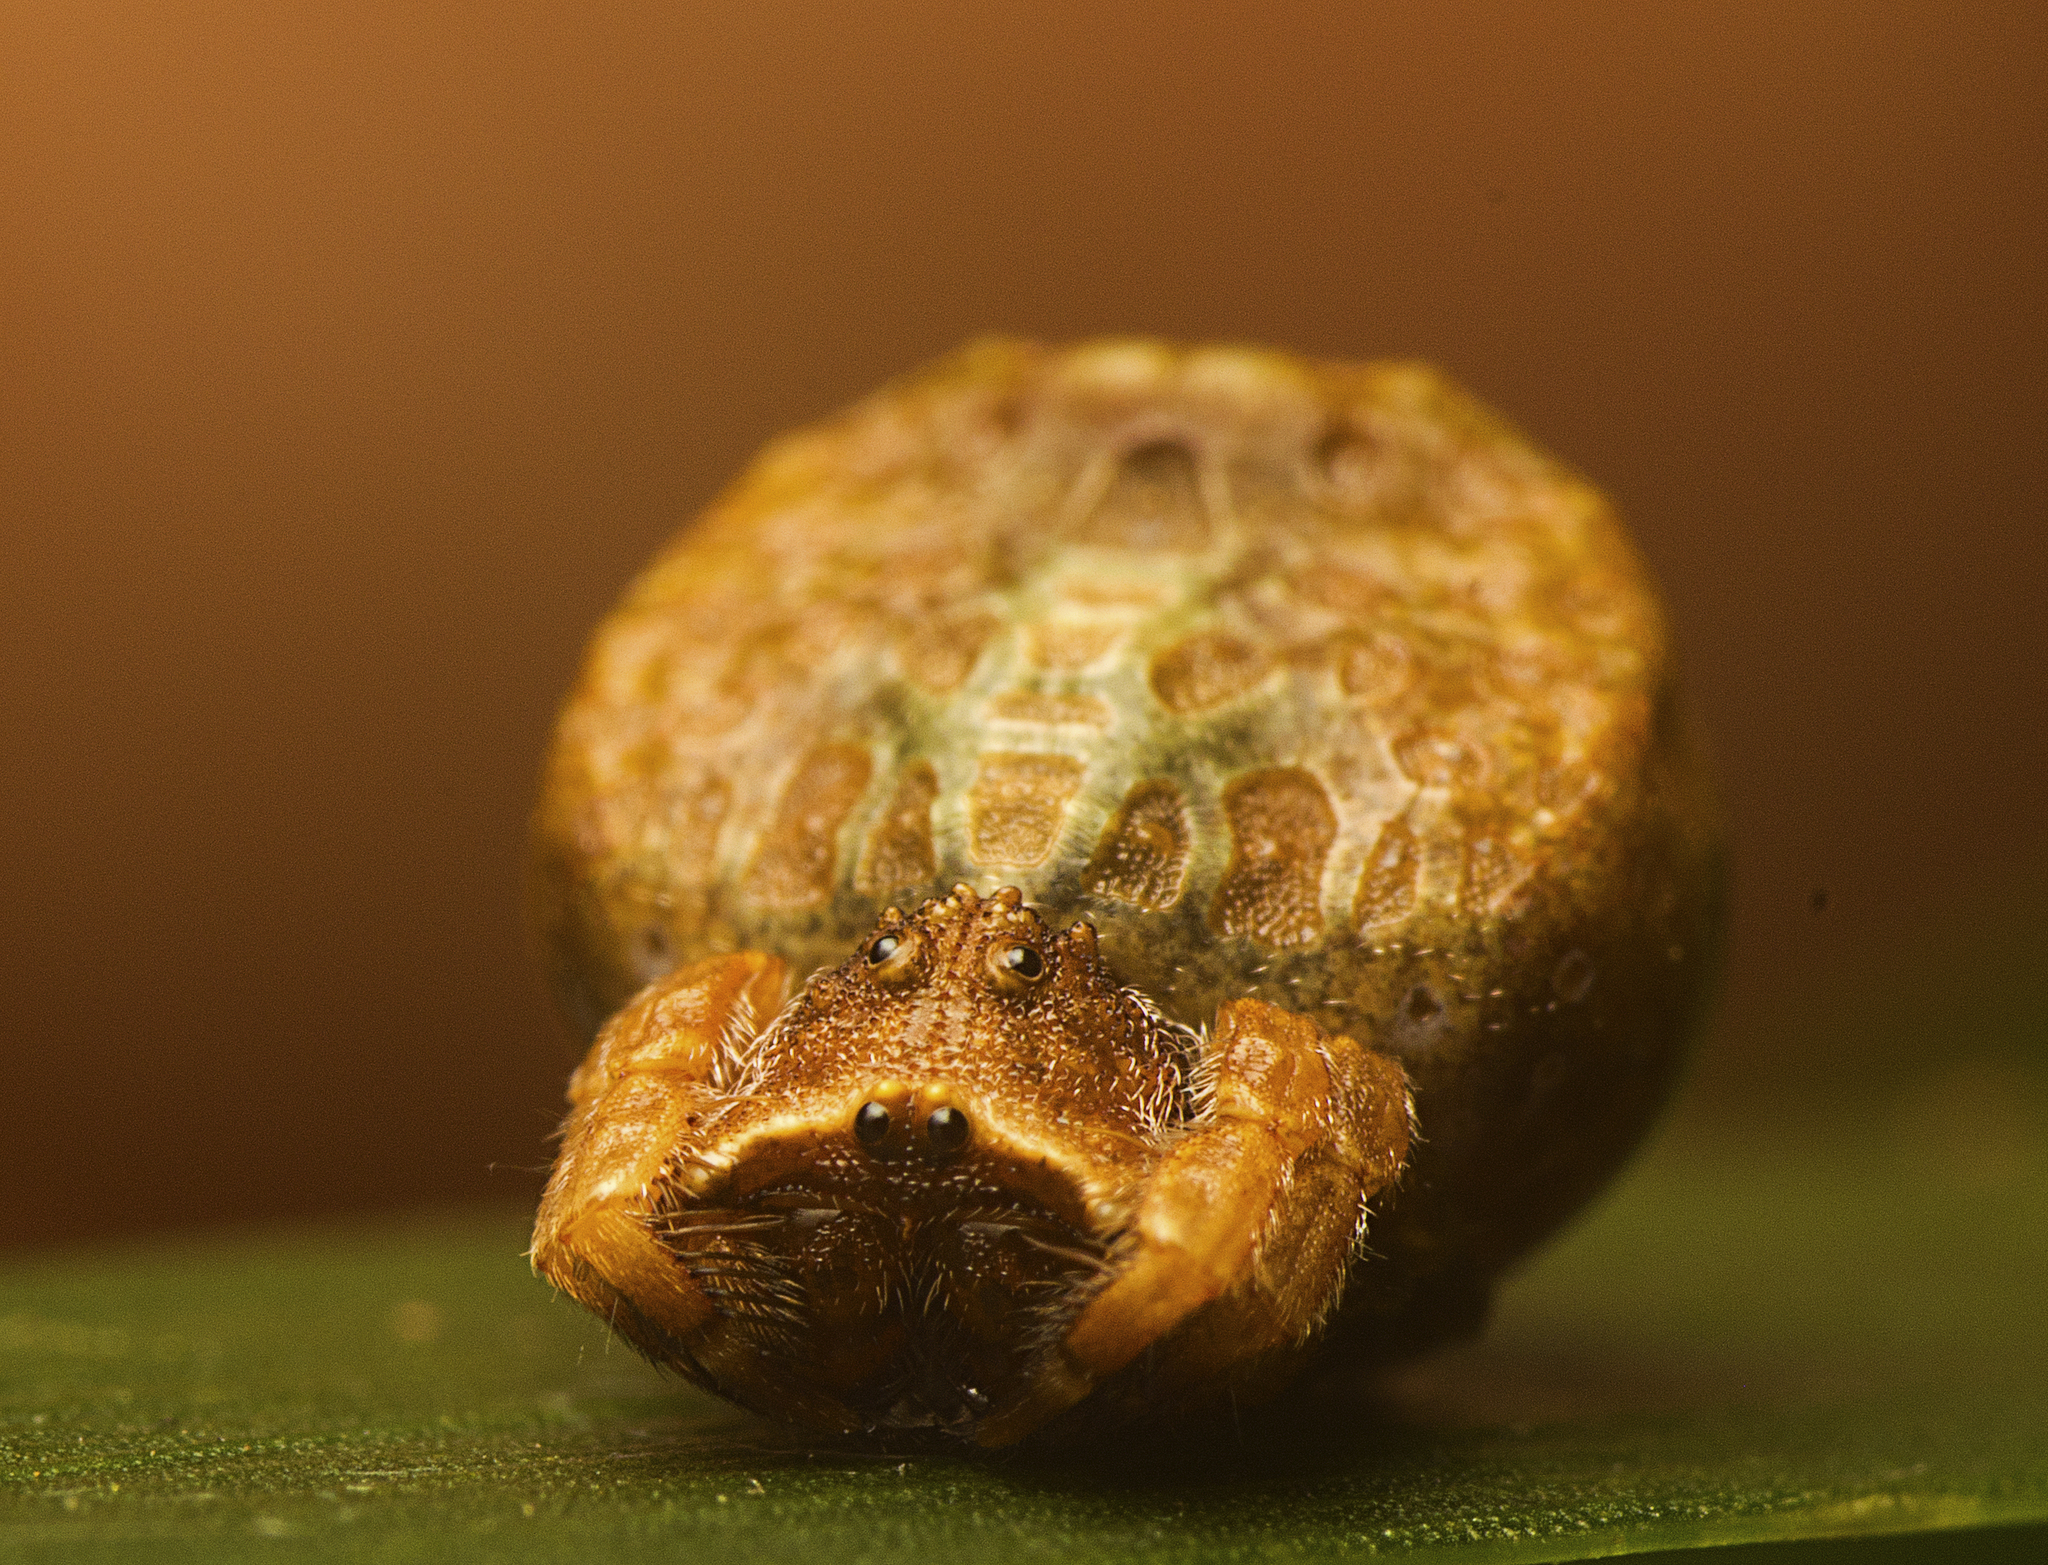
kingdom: Animalia
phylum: Arthropoda
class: Arachnida
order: Araneae
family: Arkyidae
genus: Arkys
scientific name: Arkys tuberculatus
